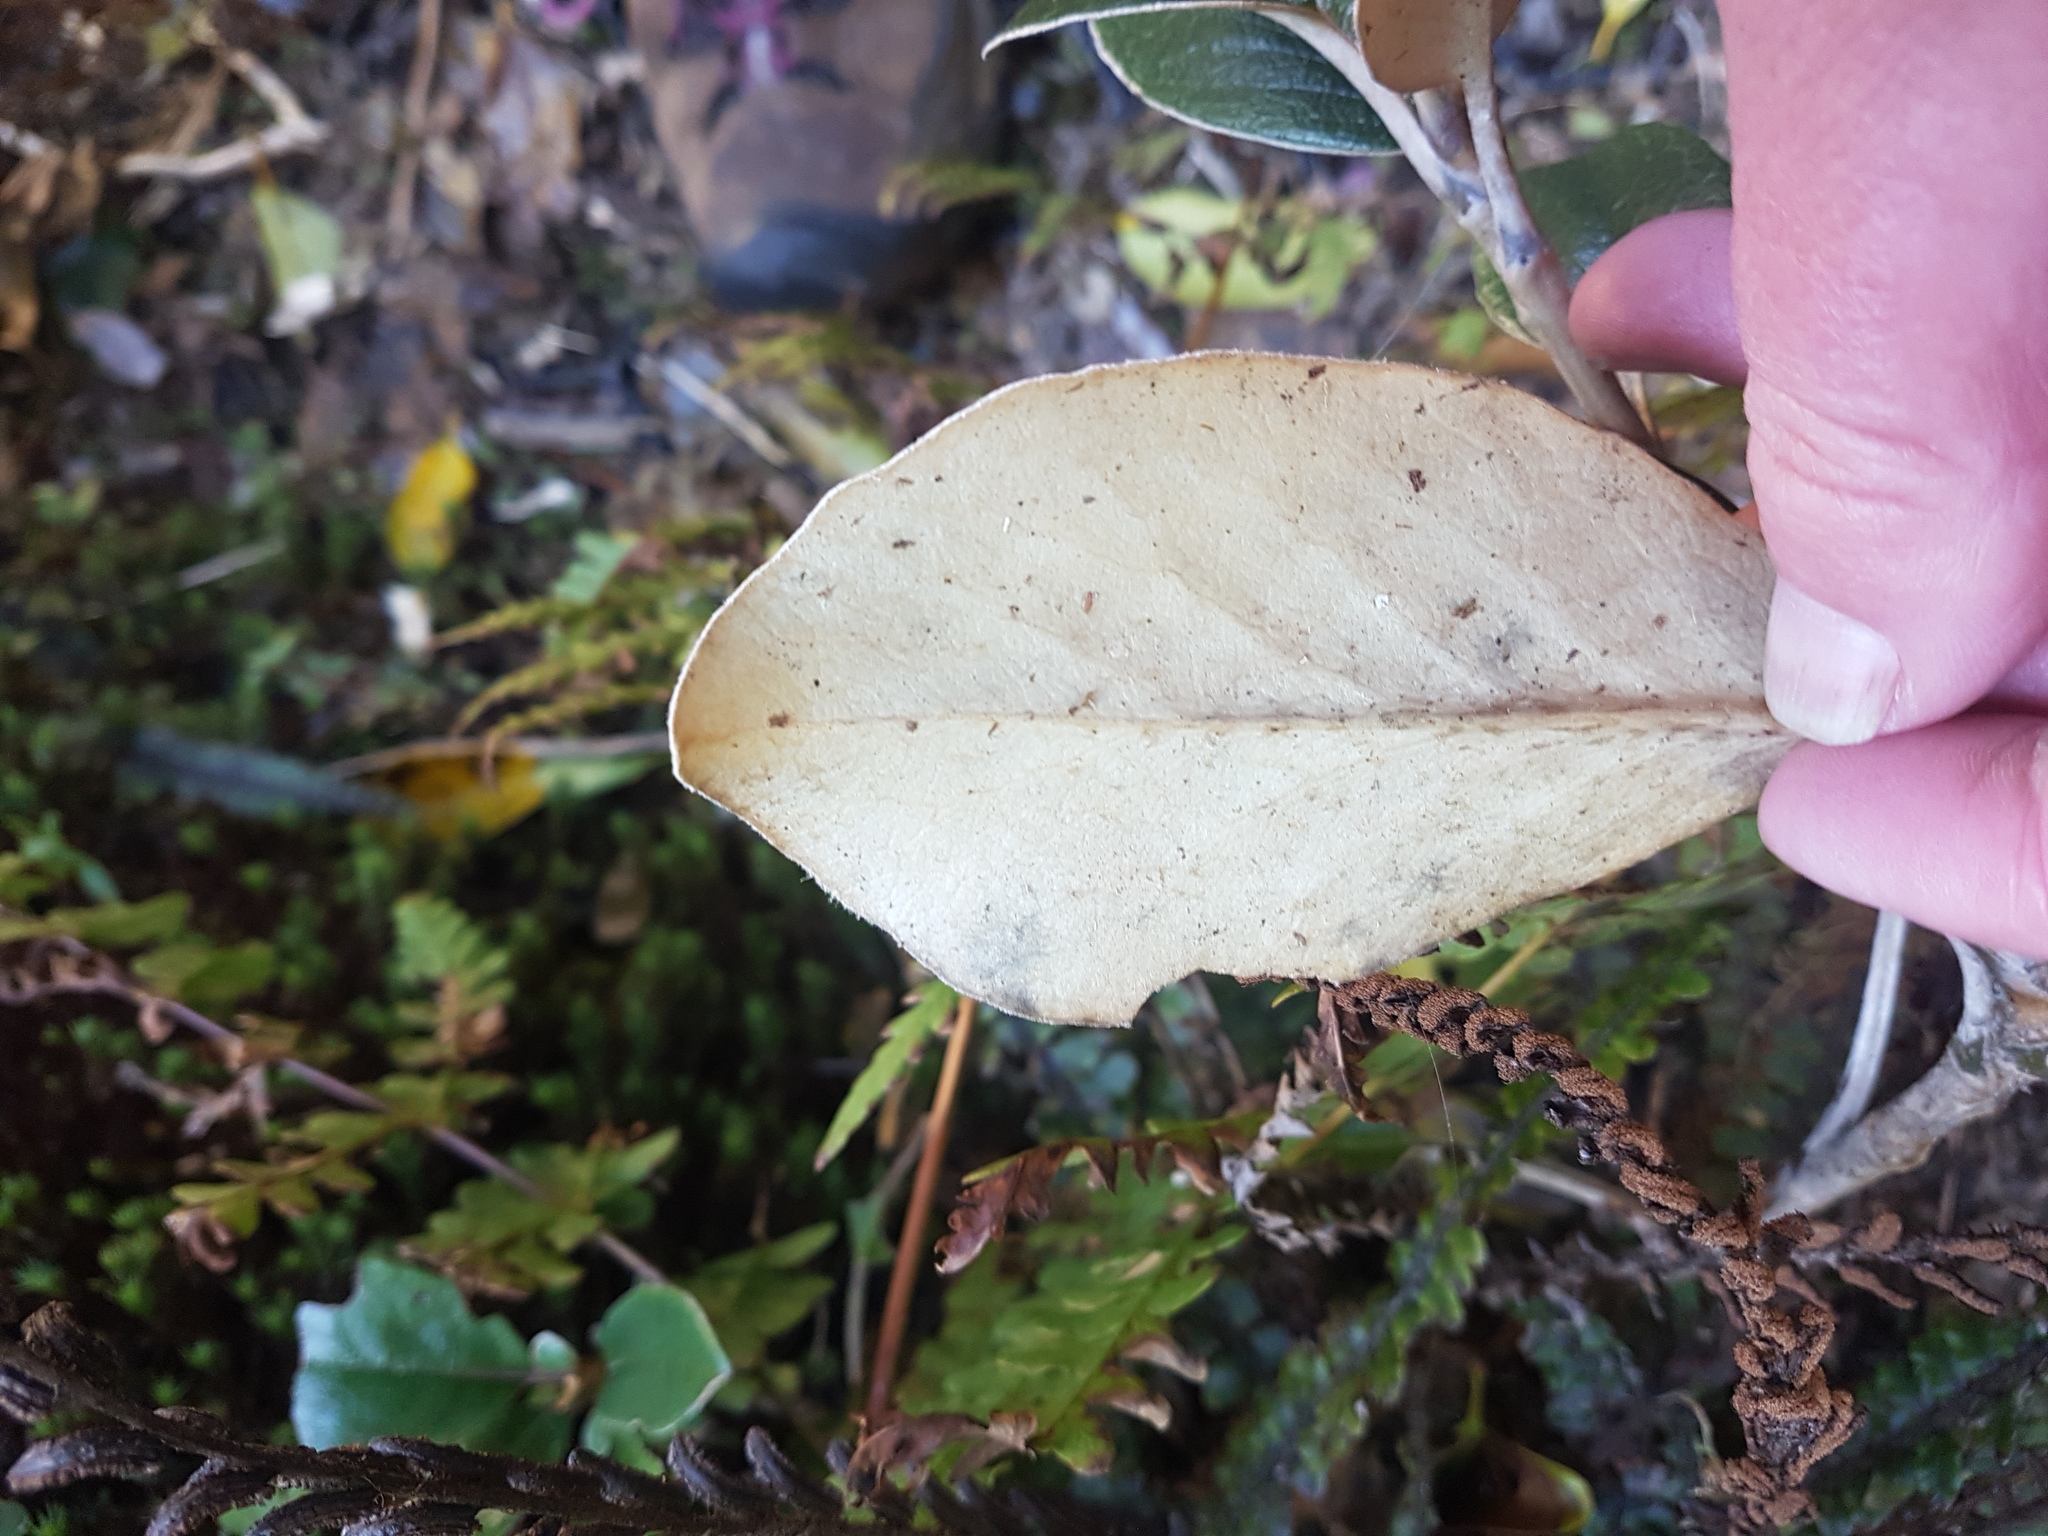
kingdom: Plantae
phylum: Tracheophyta
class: Magnoliopsida
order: Asterales
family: Asteraceae
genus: Brachyglottis
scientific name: Brachyglottis elaeagnifolia
